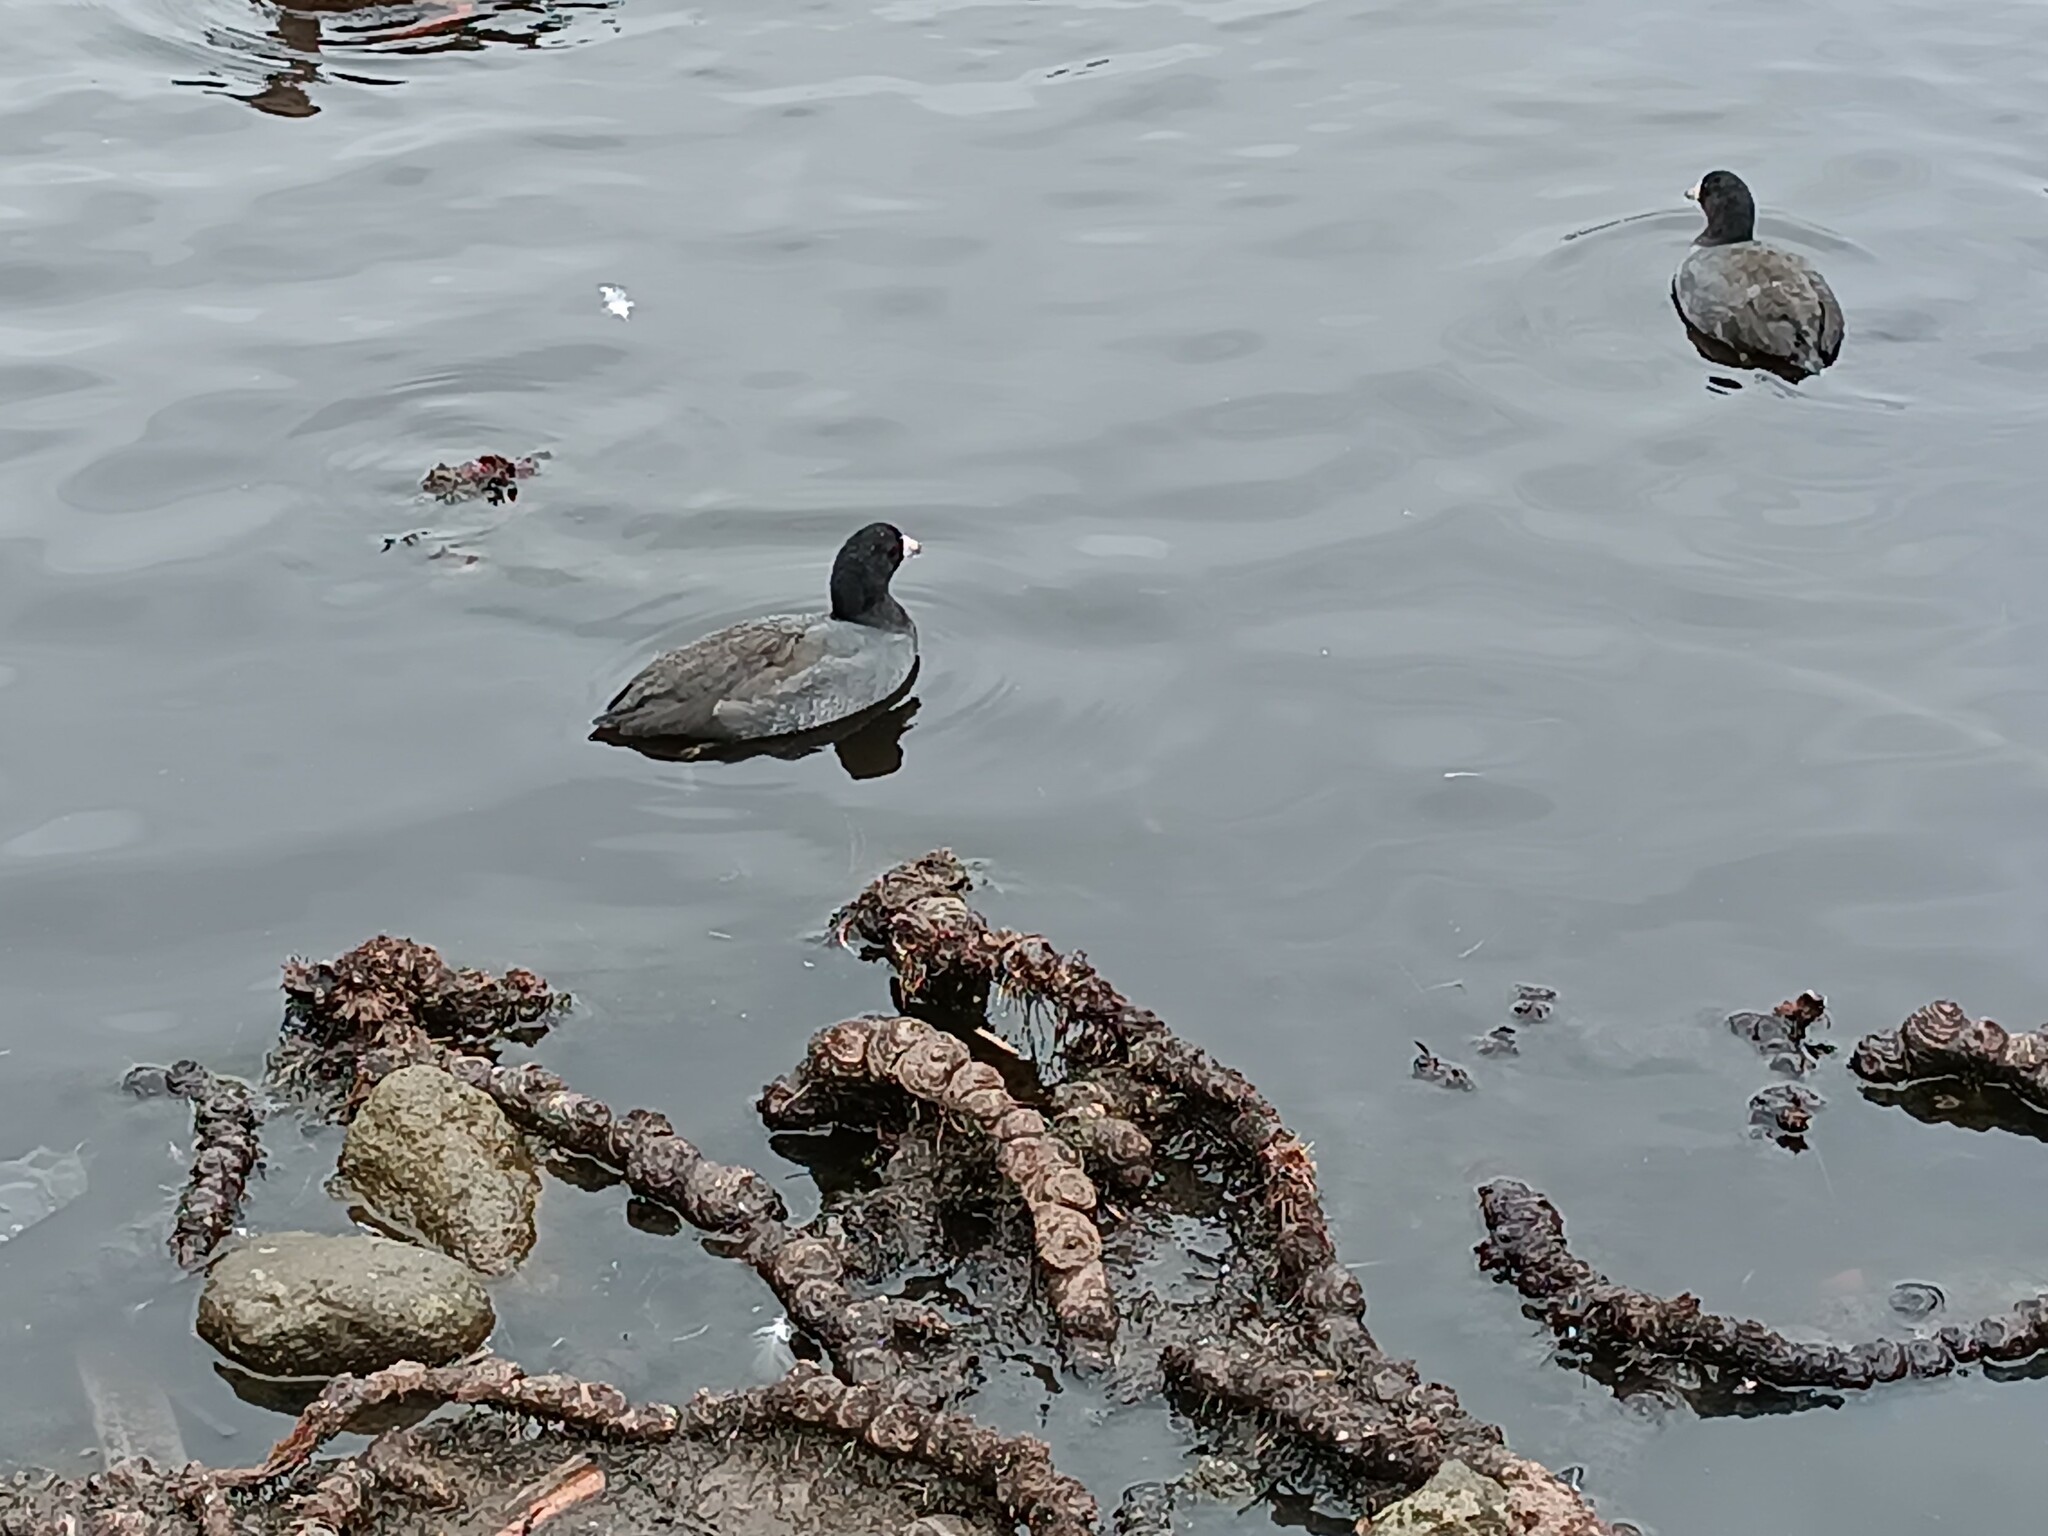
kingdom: Animalia
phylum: Chordata
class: Aves
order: Gruiformes
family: Rallidae
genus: Fulica
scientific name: Fulica americana
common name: American coot
